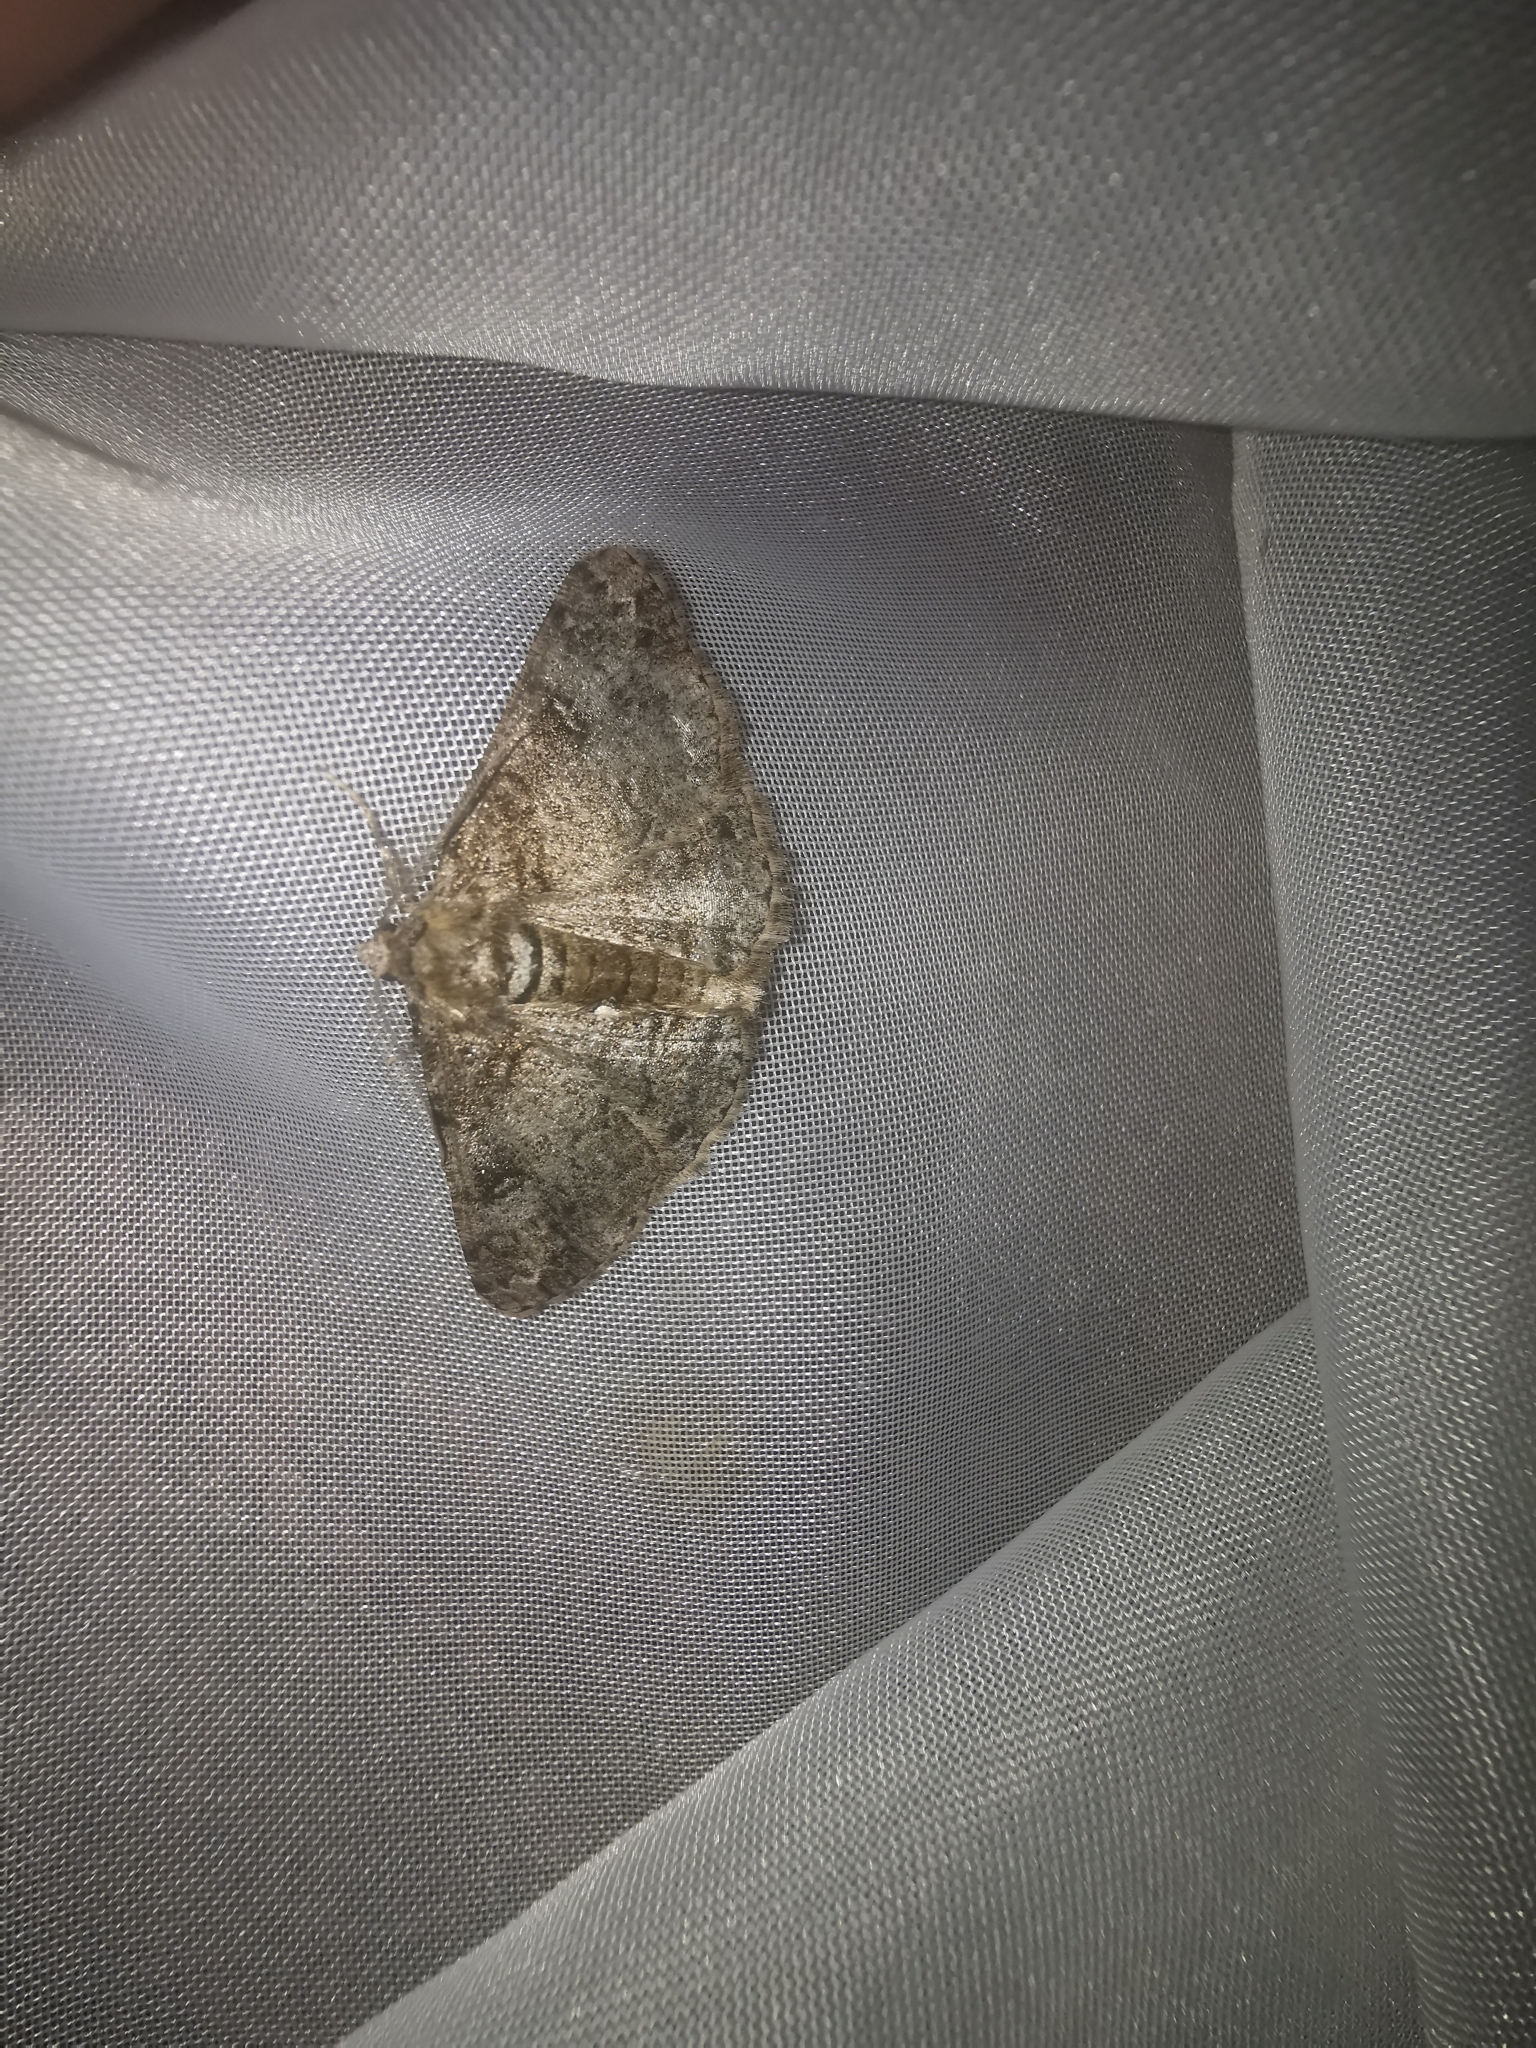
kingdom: Animalia
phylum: Arthropoda
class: Insecta
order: Lepidoptera
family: Geometridae
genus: Cleora
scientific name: Cleora cinctaria
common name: Ringed carpet
